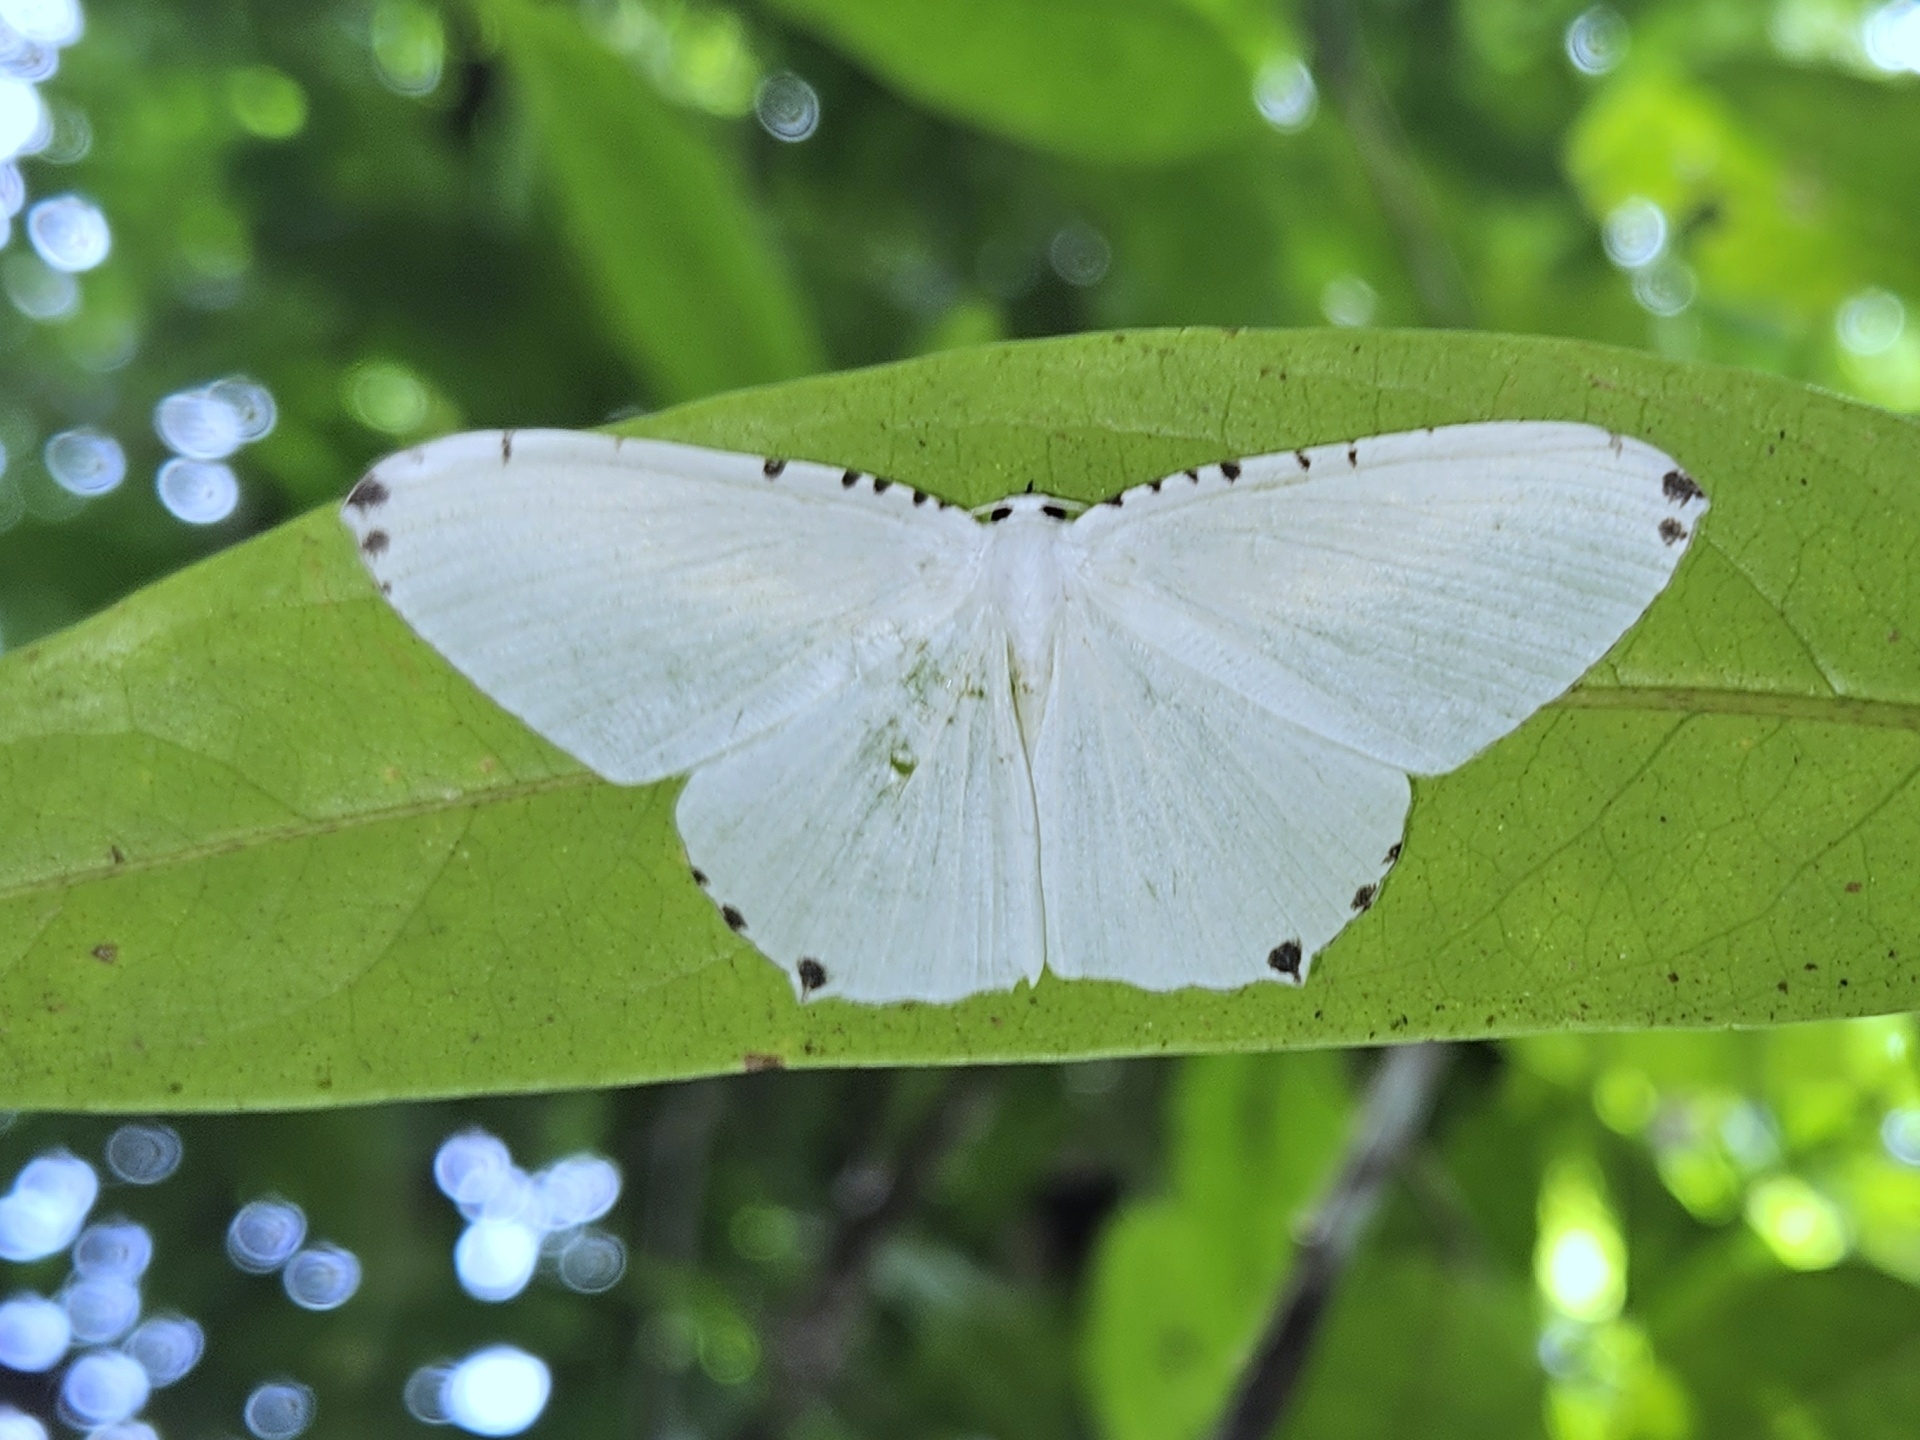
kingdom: Animalia
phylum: Arthropoda
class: Insecta
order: Lepidoptera
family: Uraniidae
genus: Acropteris
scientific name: Acropteris puellaria
